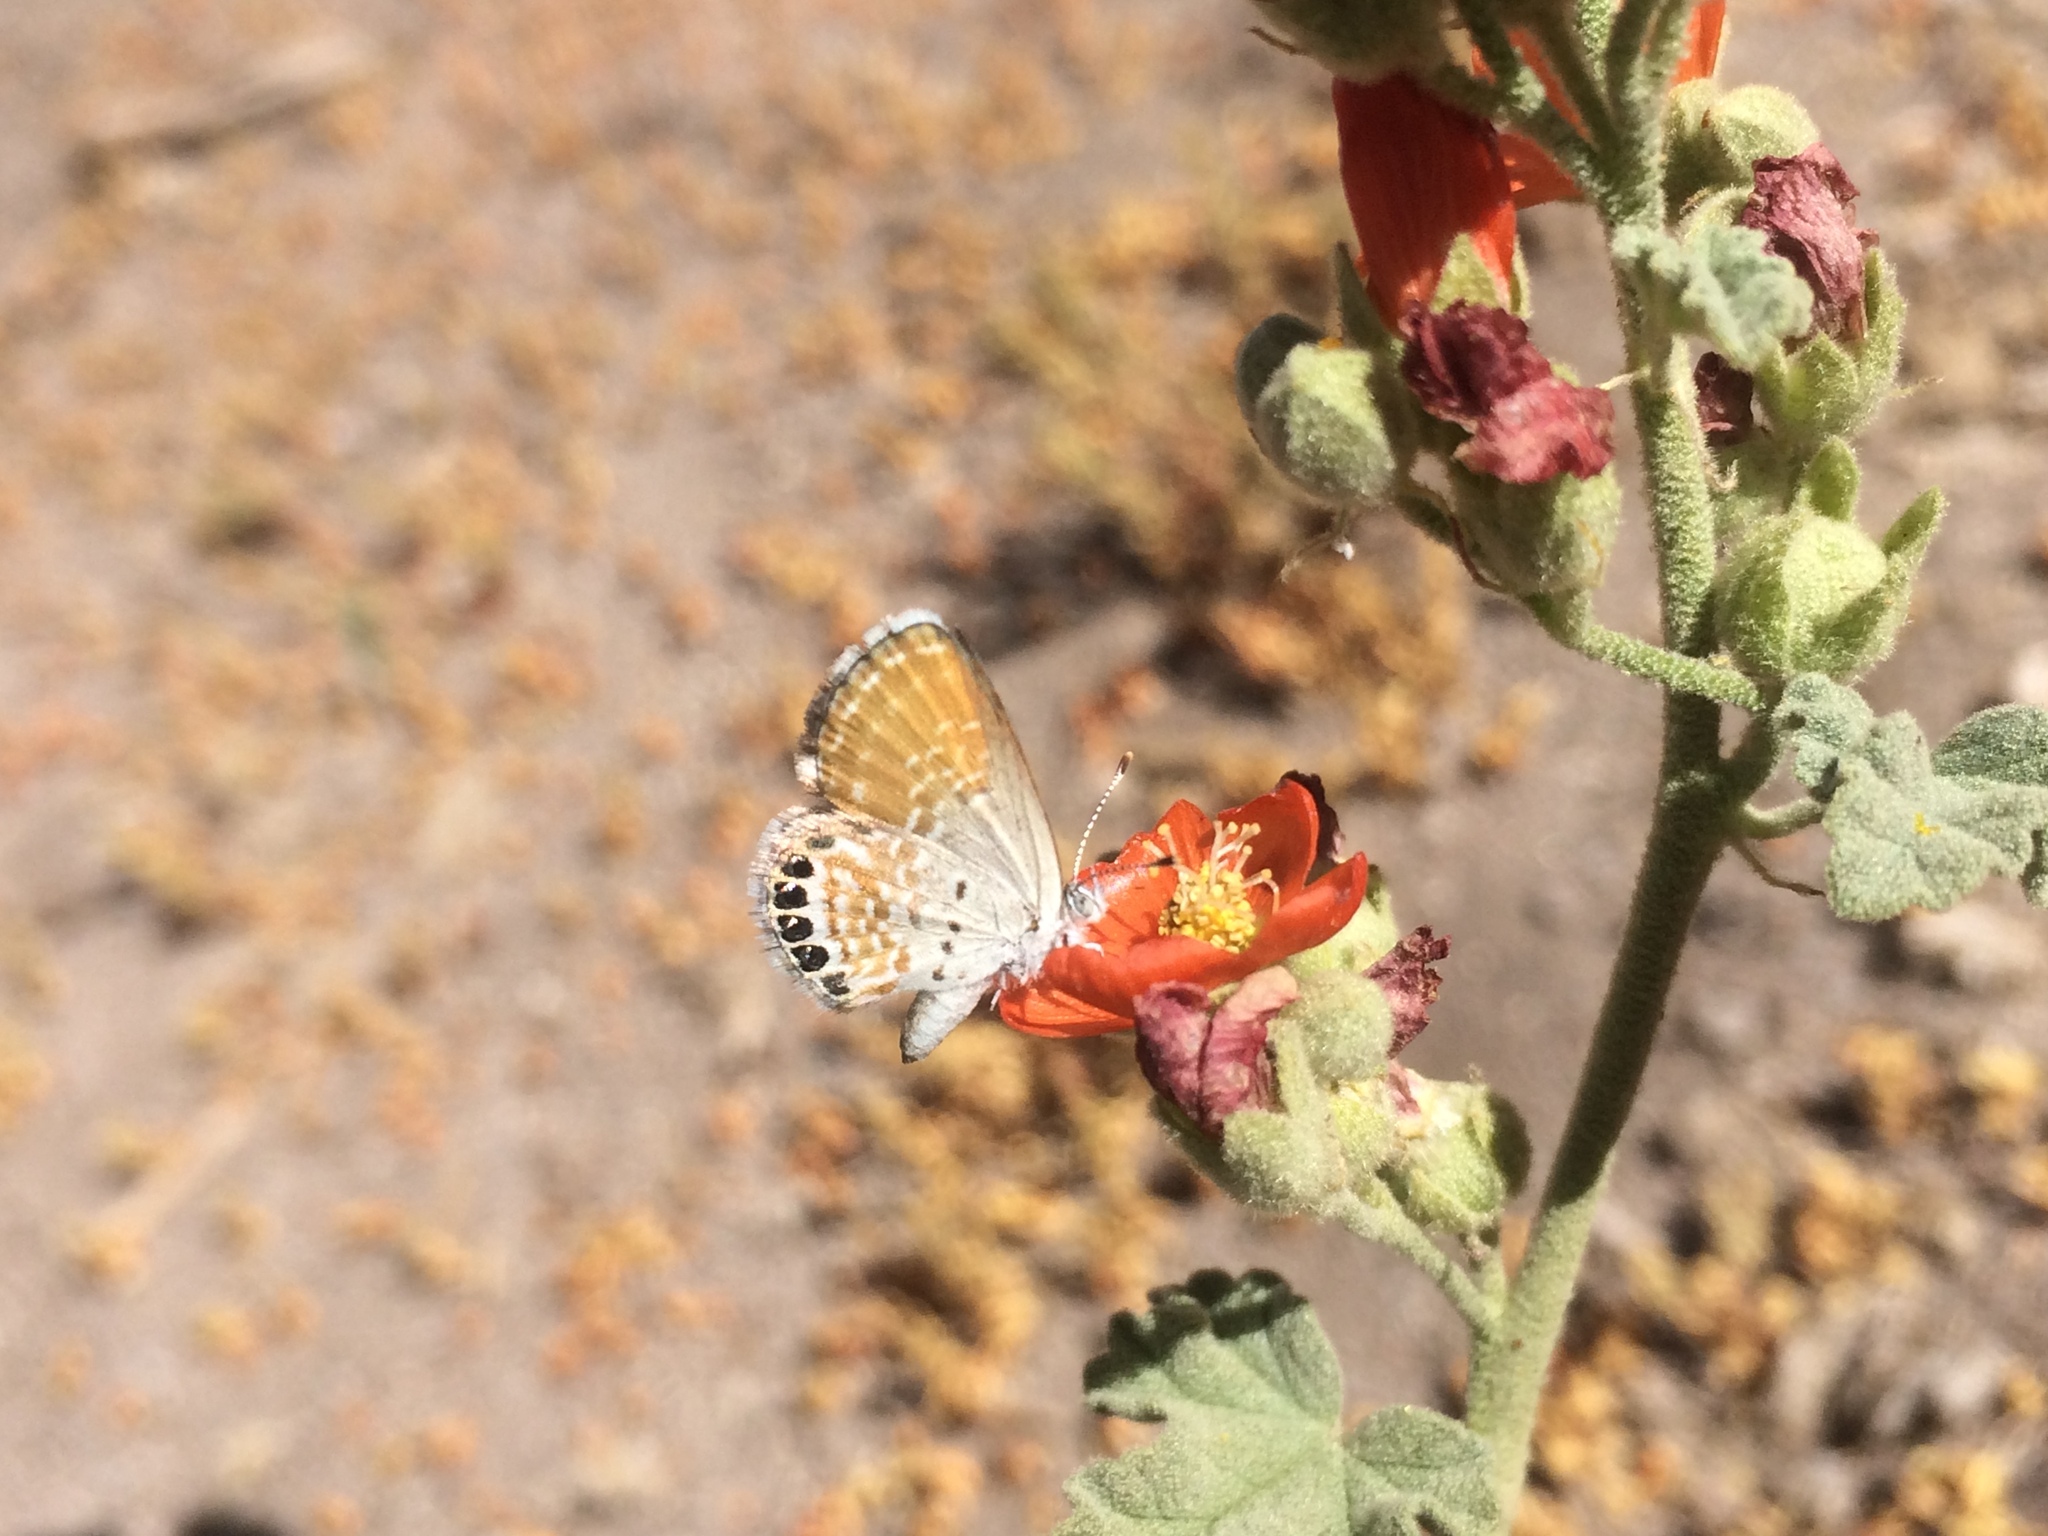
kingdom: Animalia
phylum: Arthropoda
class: Insecta
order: Lepidoptera
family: Lycaenidae
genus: Brephidium
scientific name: Brephidium exilis
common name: Pygmy blue
